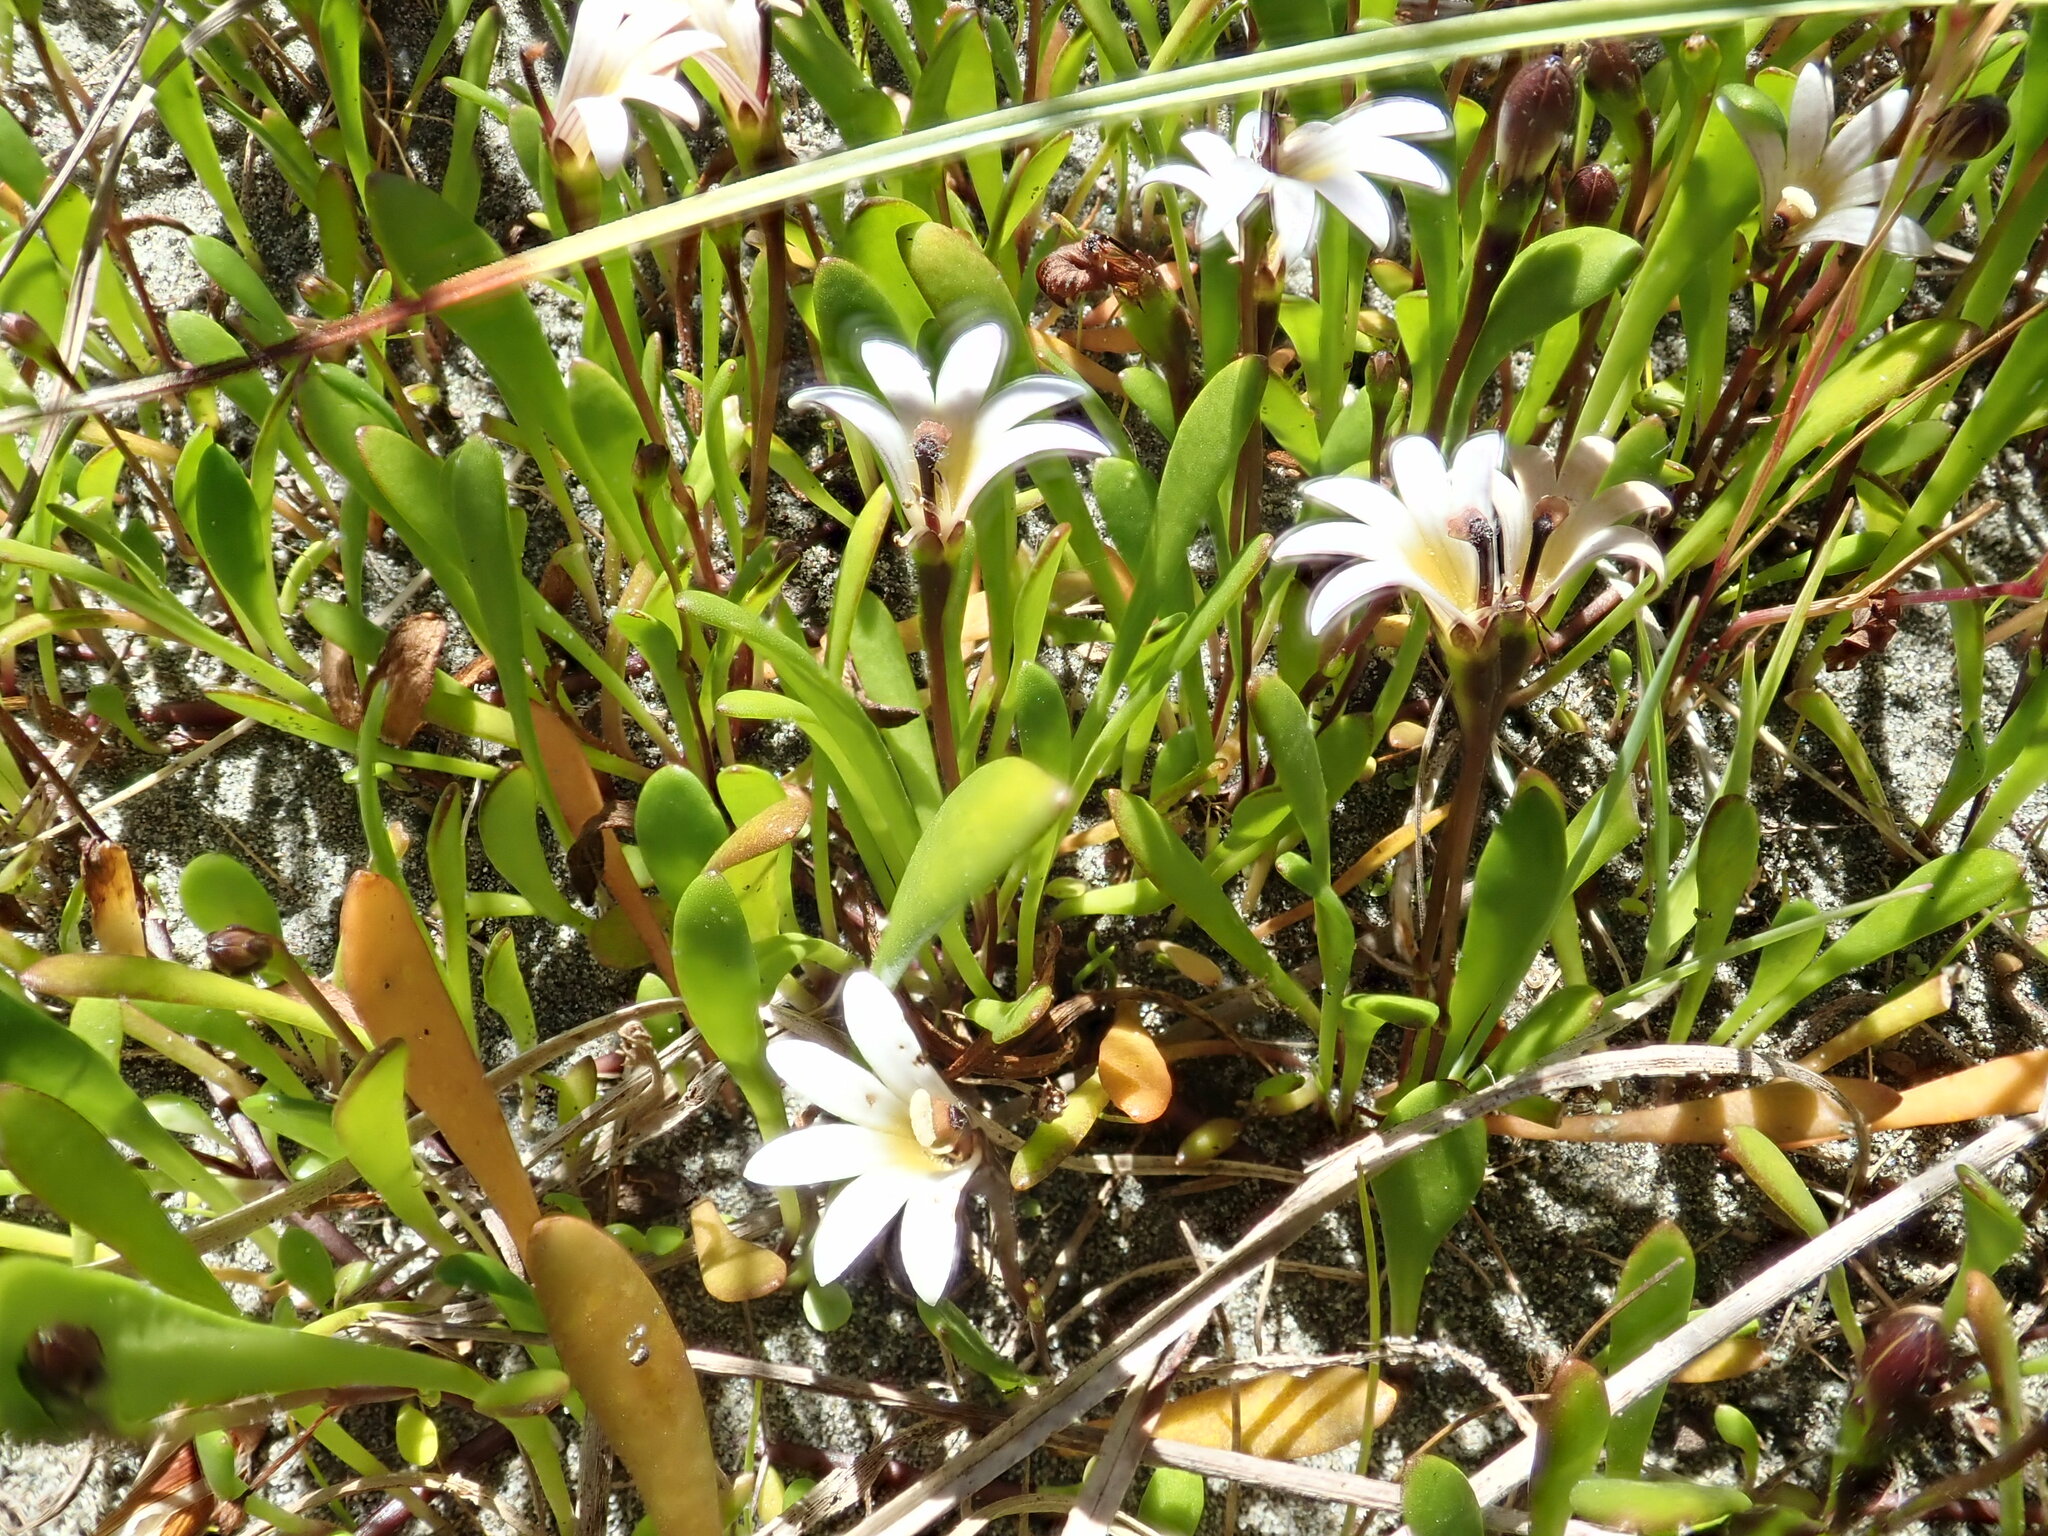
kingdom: Plantae
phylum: Tracheophyta
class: Magnoliopsida
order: Asterales
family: Goodeniaceae
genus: Goodenia
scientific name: Goodenia radicans
